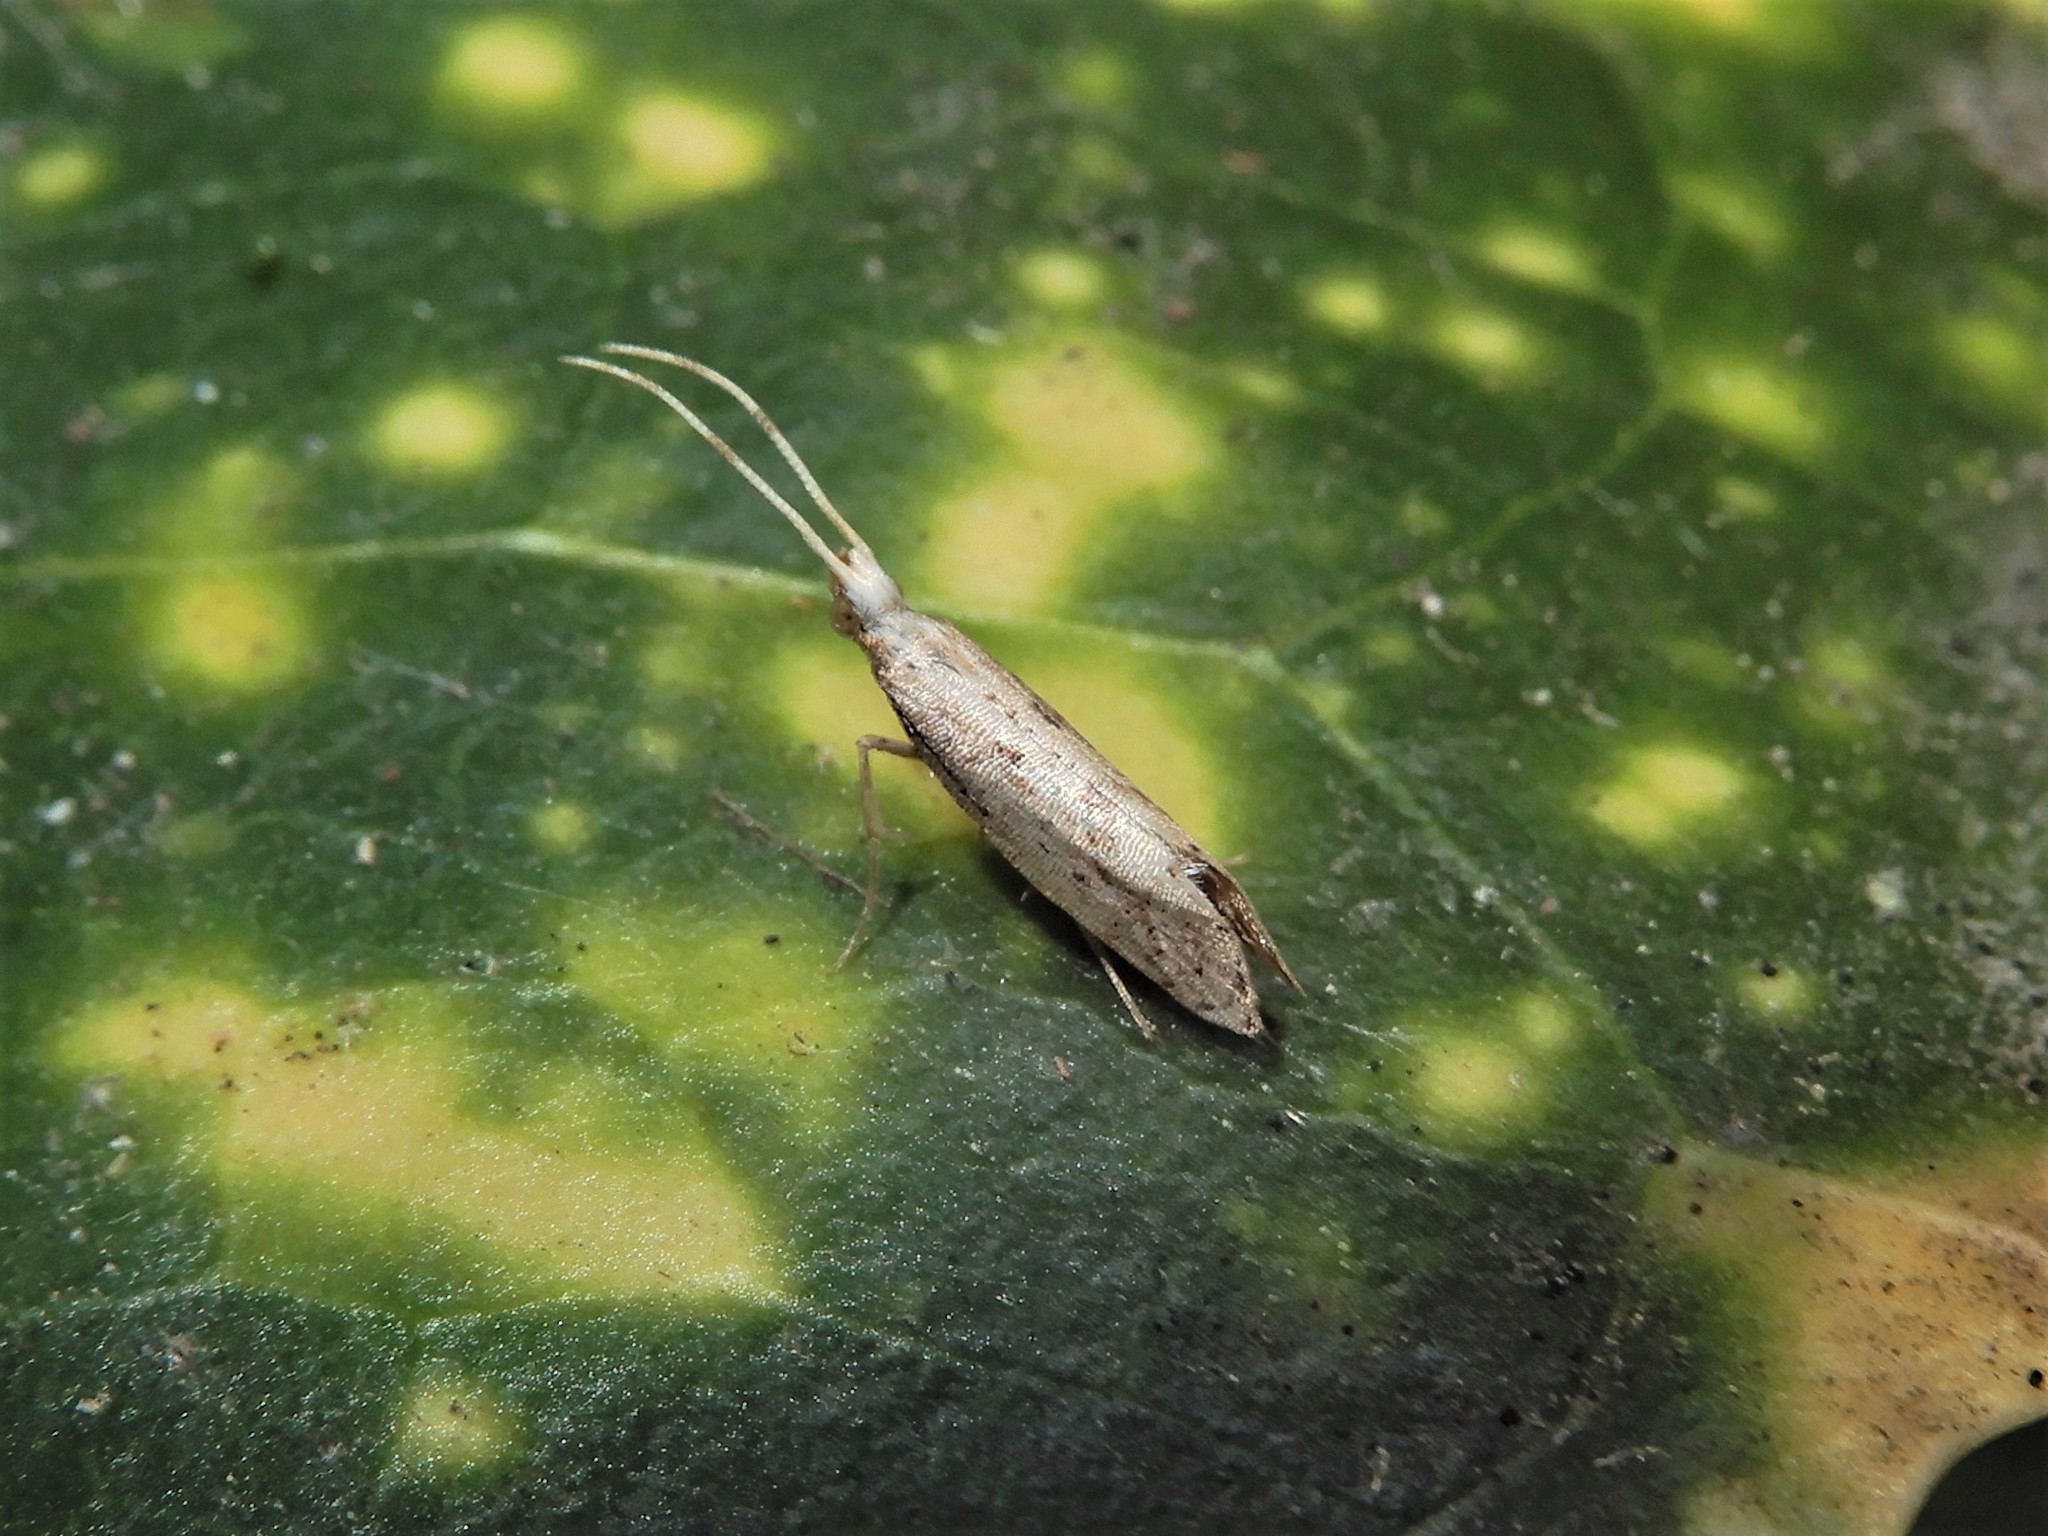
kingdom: Animalia
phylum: Arthropoda
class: Insecta
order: Lepidoptera
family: Plutellidae
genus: Leuroperna
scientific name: Leuroperna sera
